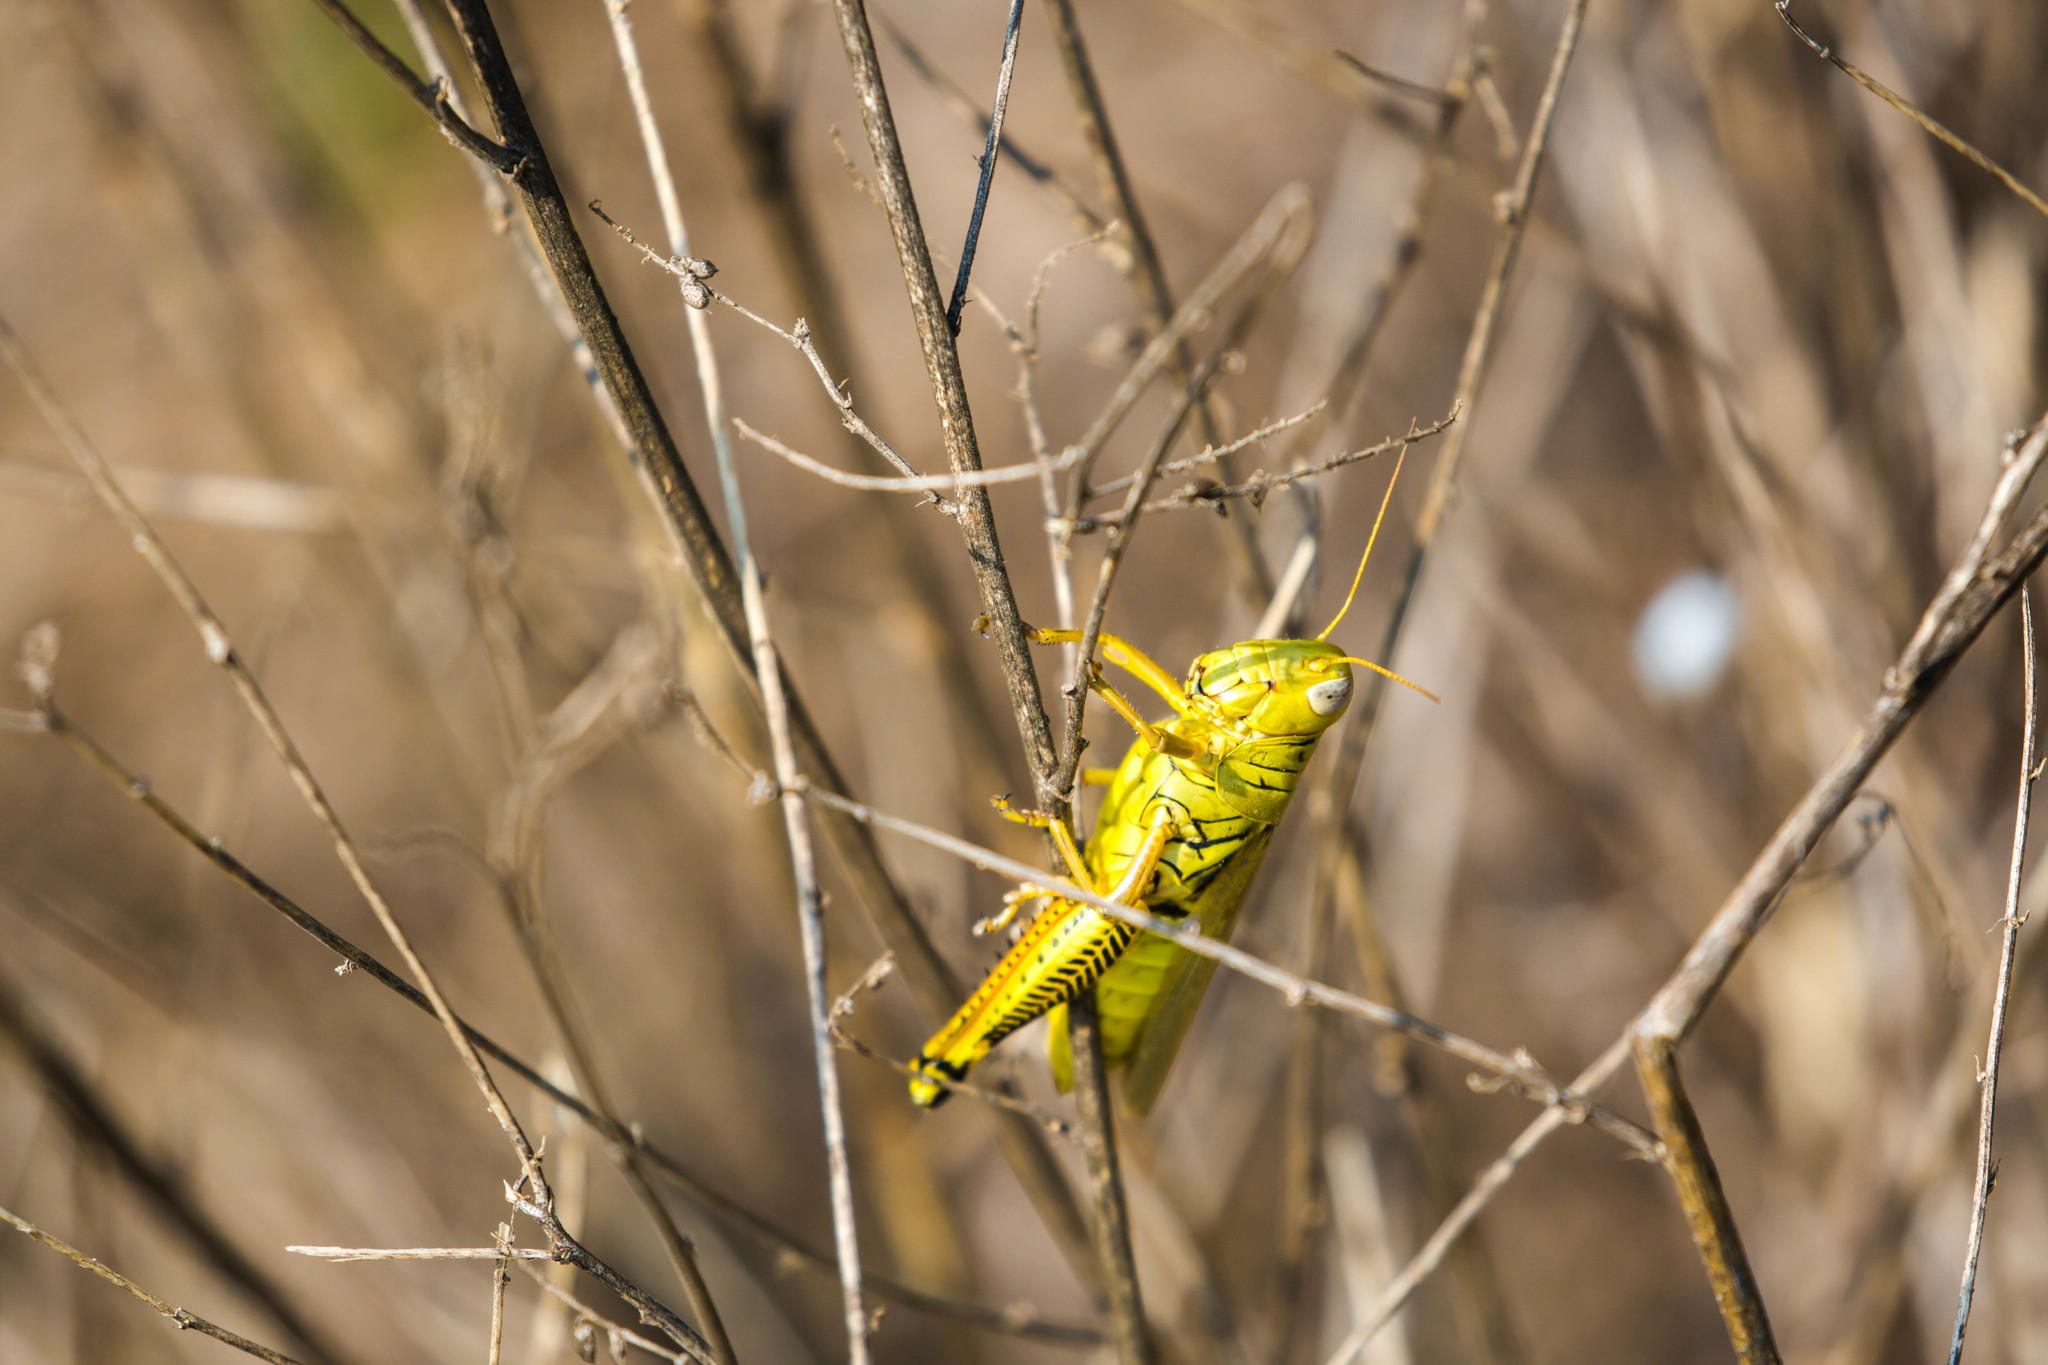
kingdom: Animalia
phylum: Arthropoda
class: Insecta
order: Orthoptera
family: Acrididae
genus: Melanoplus
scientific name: Melanoplus differentialis
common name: Differential grasshopper
